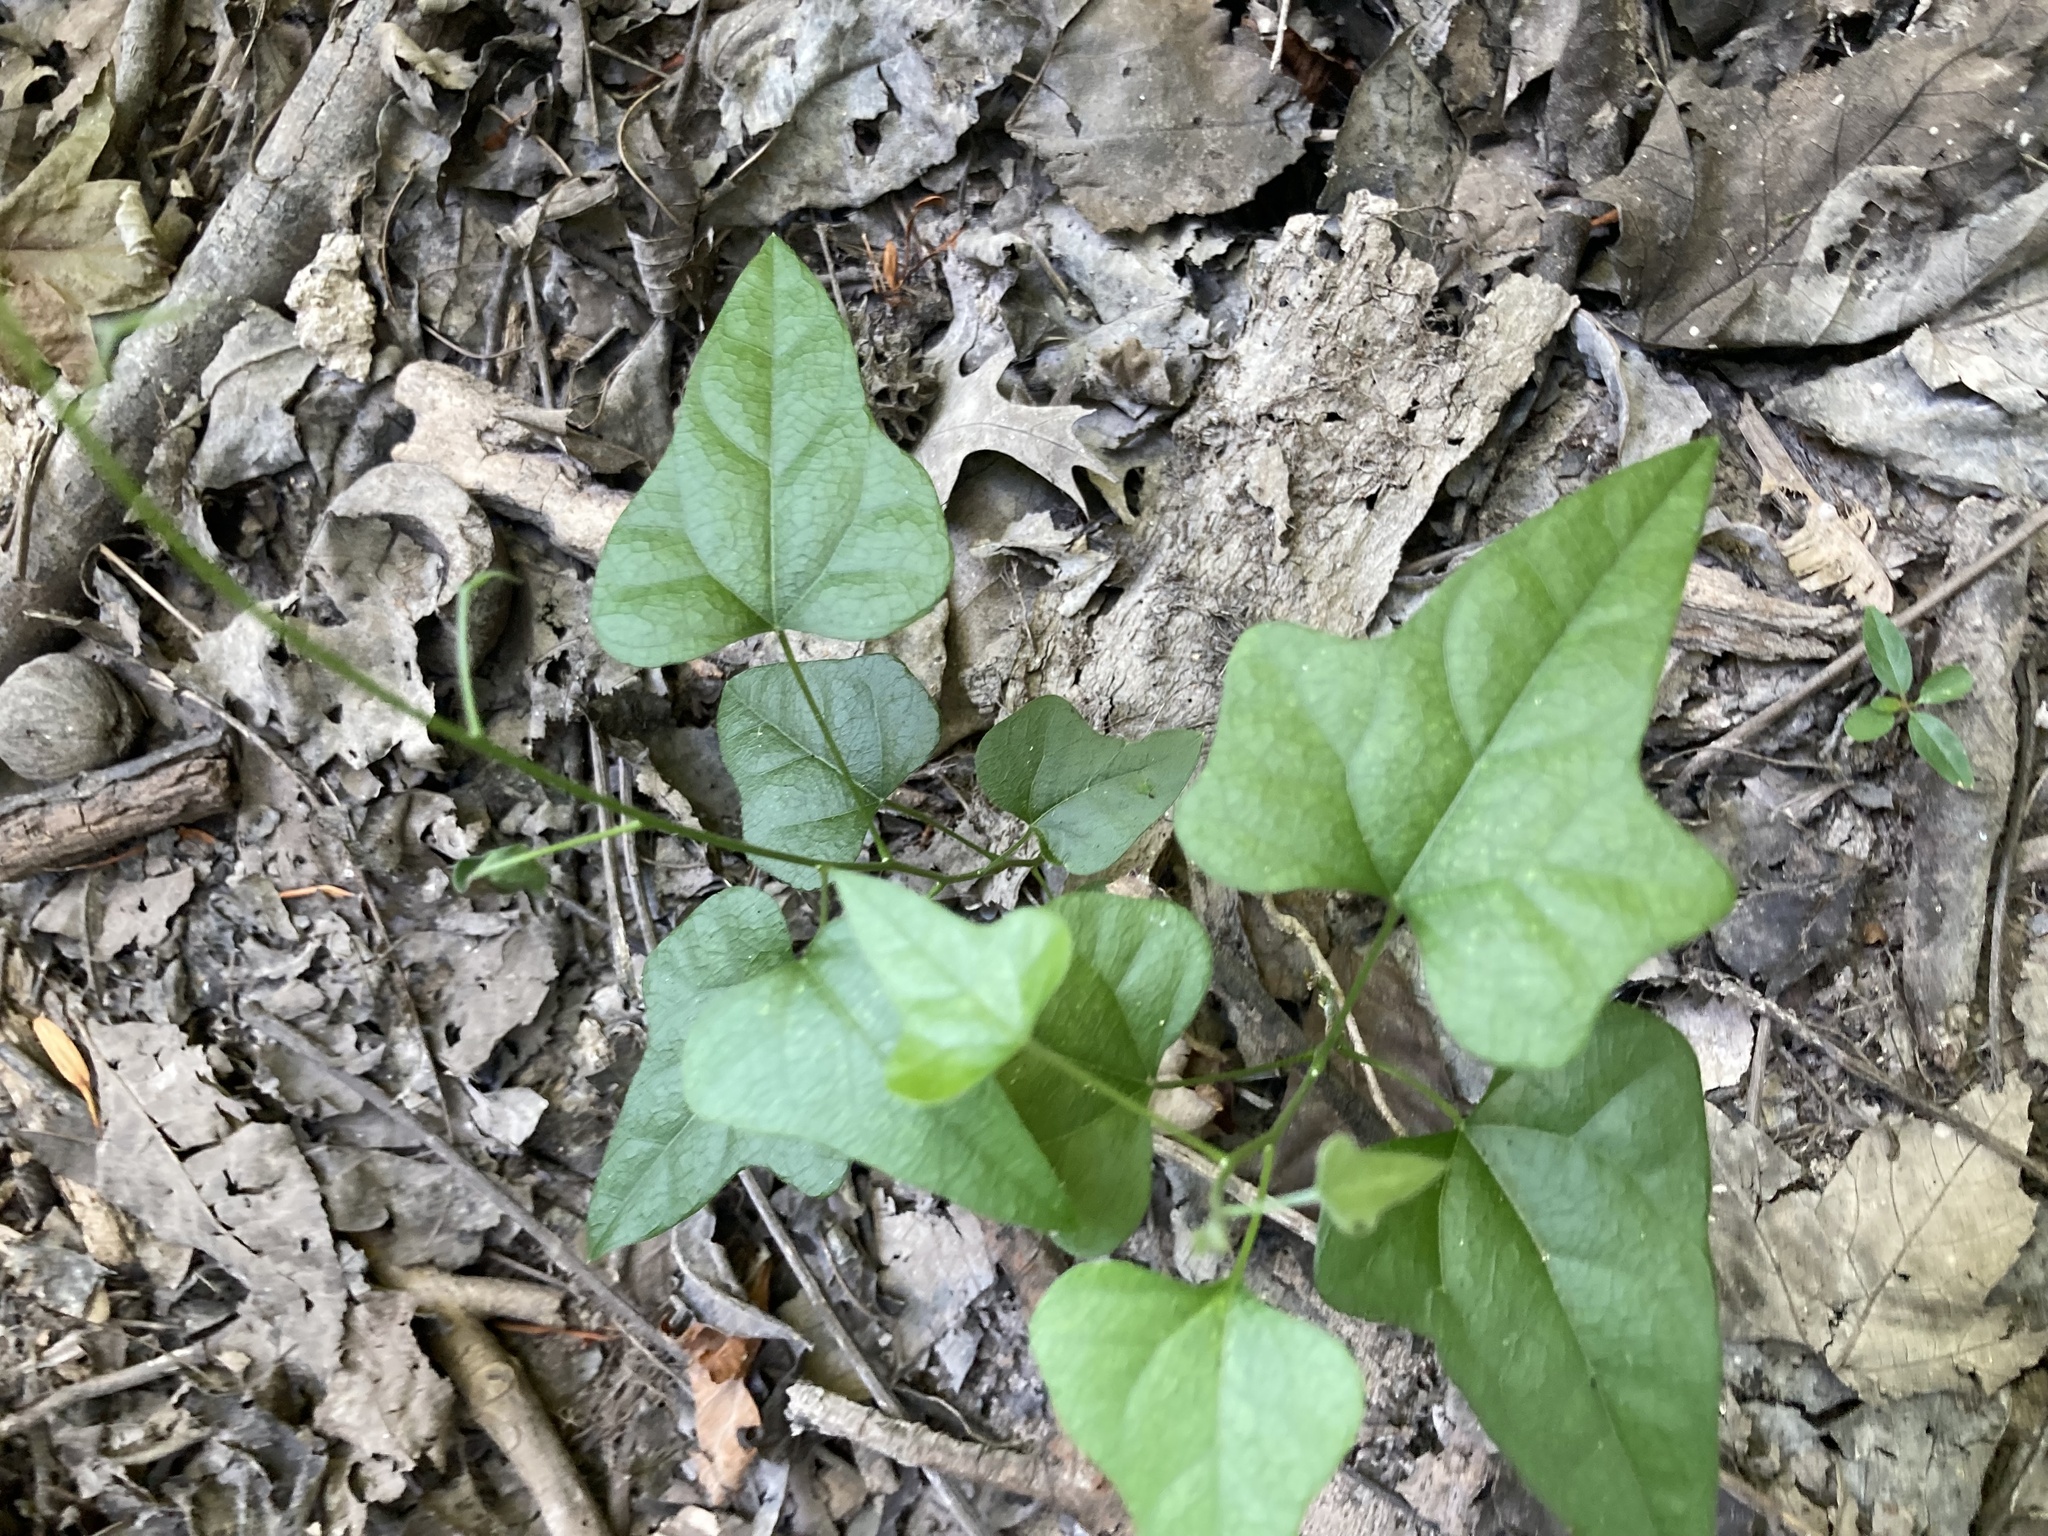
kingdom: Plantae
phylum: Tracheophyta
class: Magnoliopsida
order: Ranunculales
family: Menispermaceae
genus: Cocculus
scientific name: Cocculus carolinus
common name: Carolina moonseed
